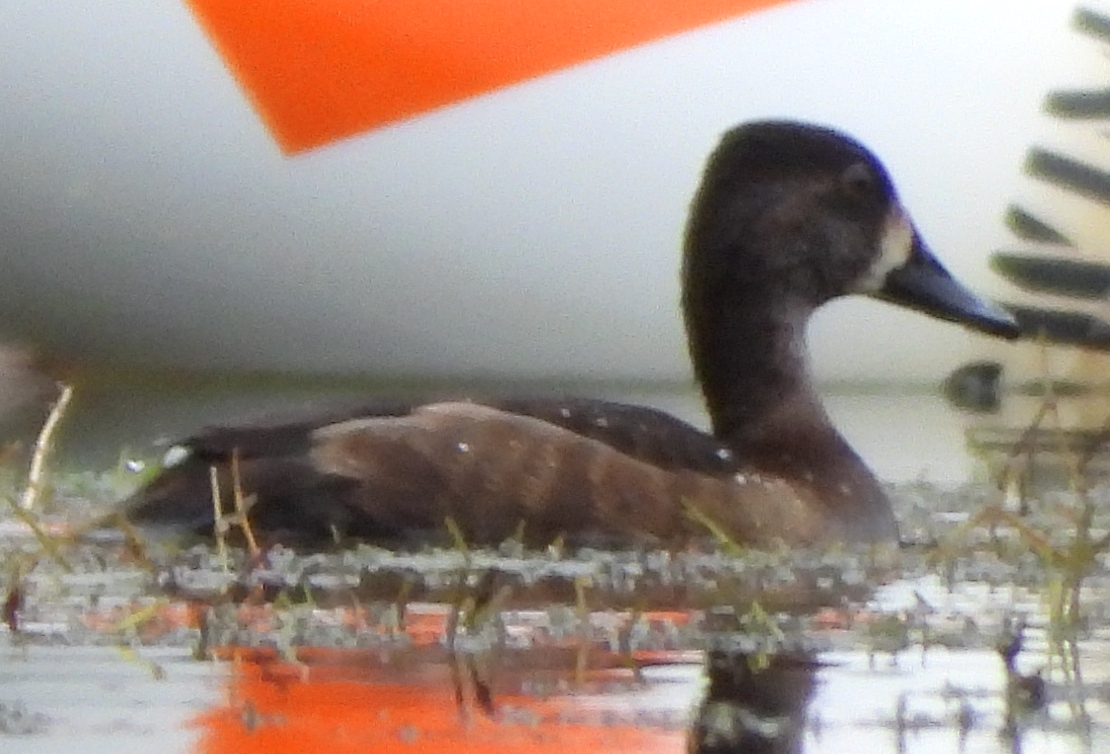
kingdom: Animalia
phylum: Chordata
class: Aves
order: Anseriformes
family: Anatidae
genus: Aythya
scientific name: Aythya collaris
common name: Ring-necked duck
